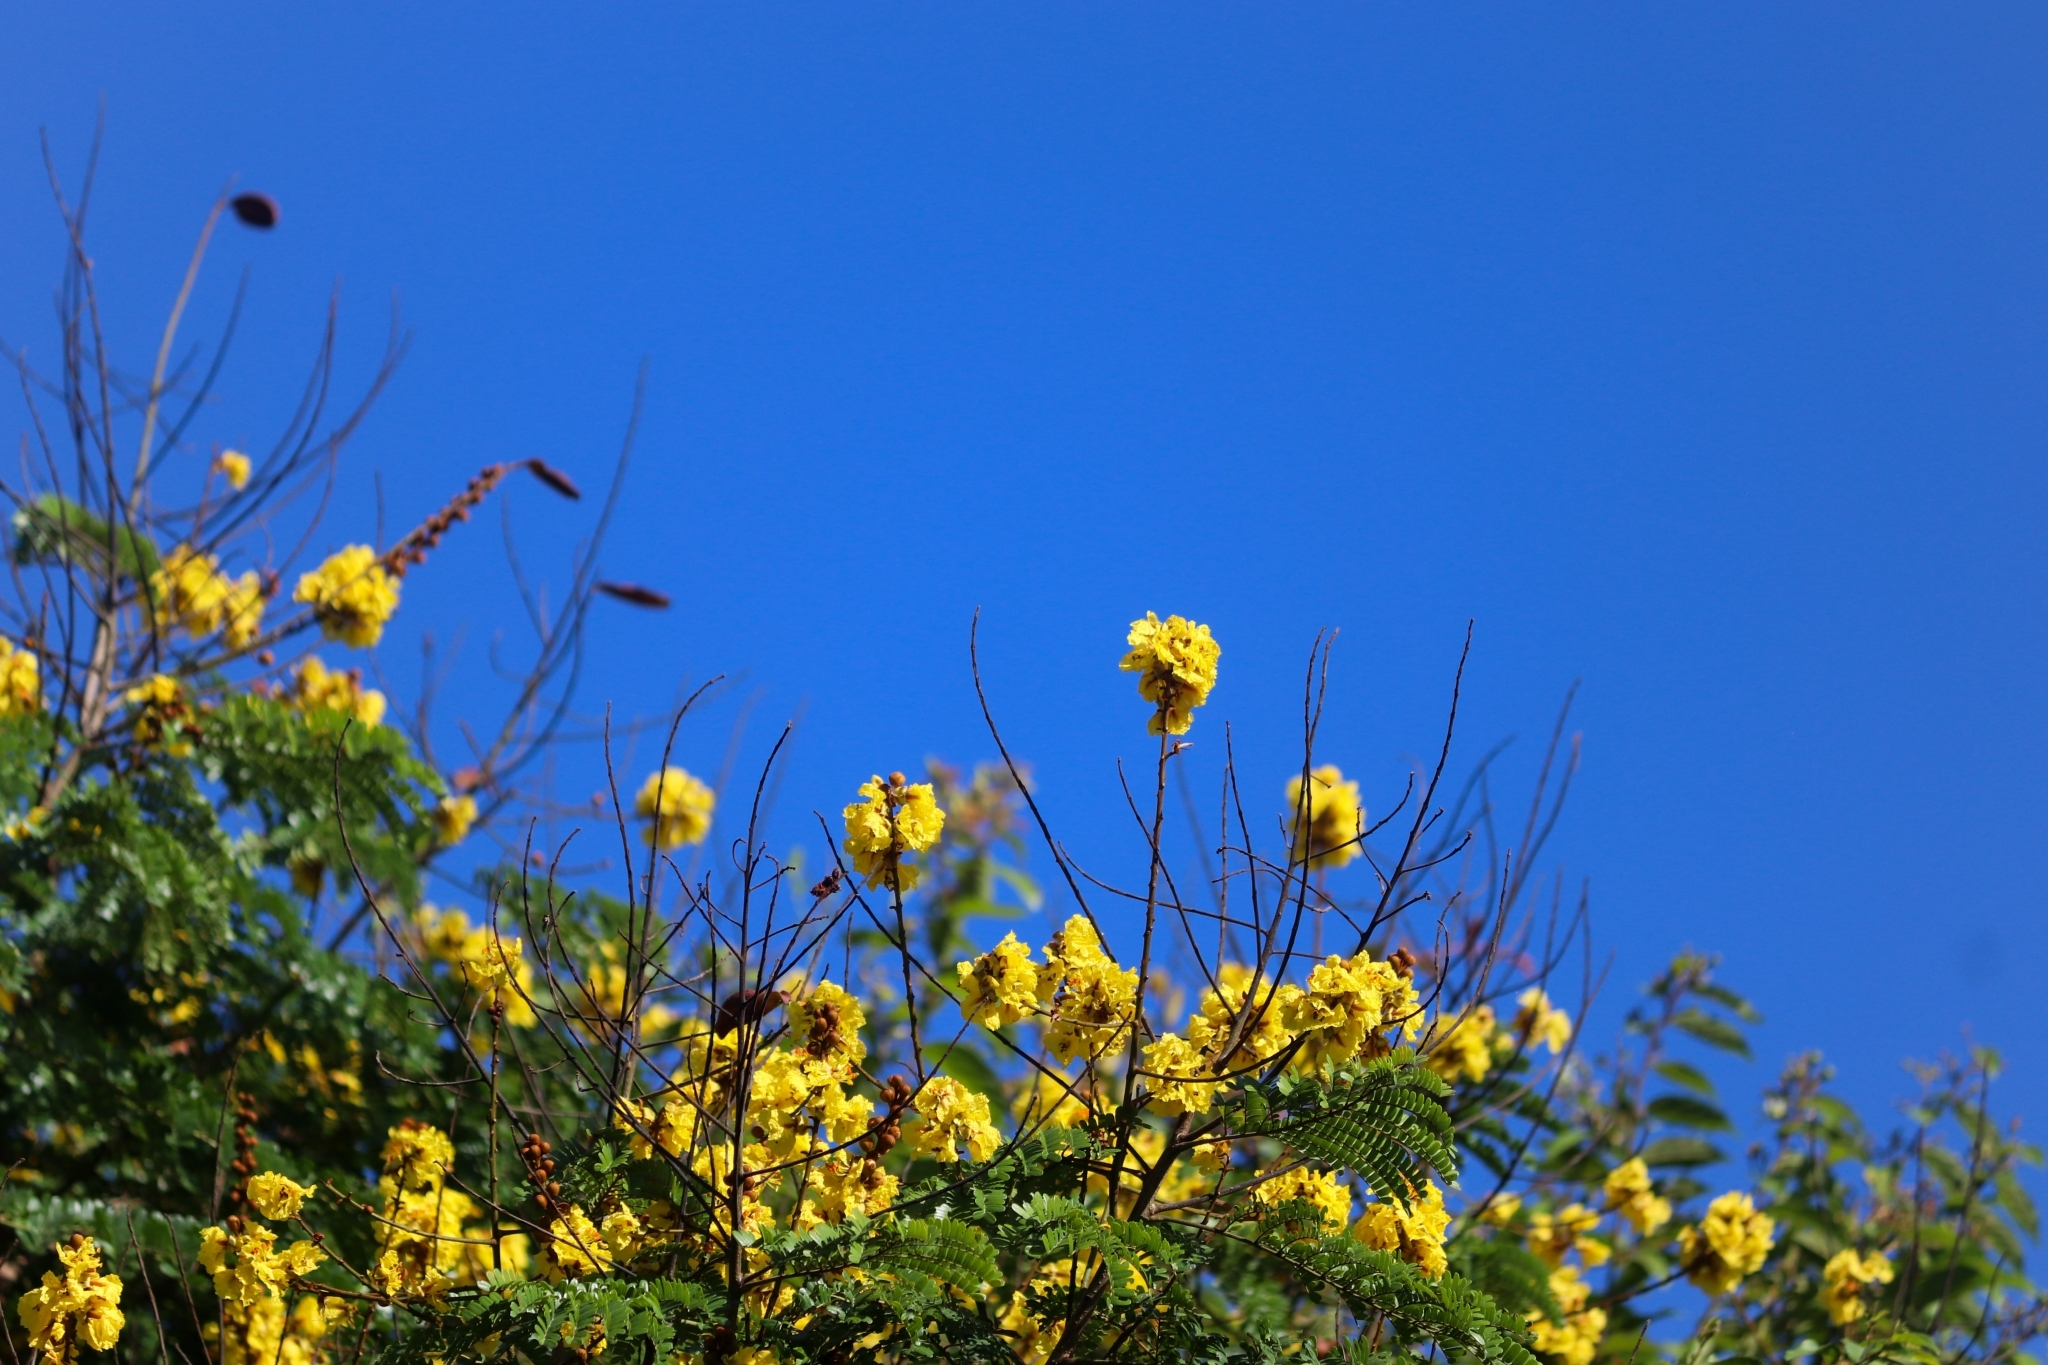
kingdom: Plantae
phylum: Tracheophyta
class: Magnoliopsida
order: Fabales
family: Fabaceae
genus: Peltophorum
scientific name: Peltophorum pterocarpum
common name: Yellow flame
